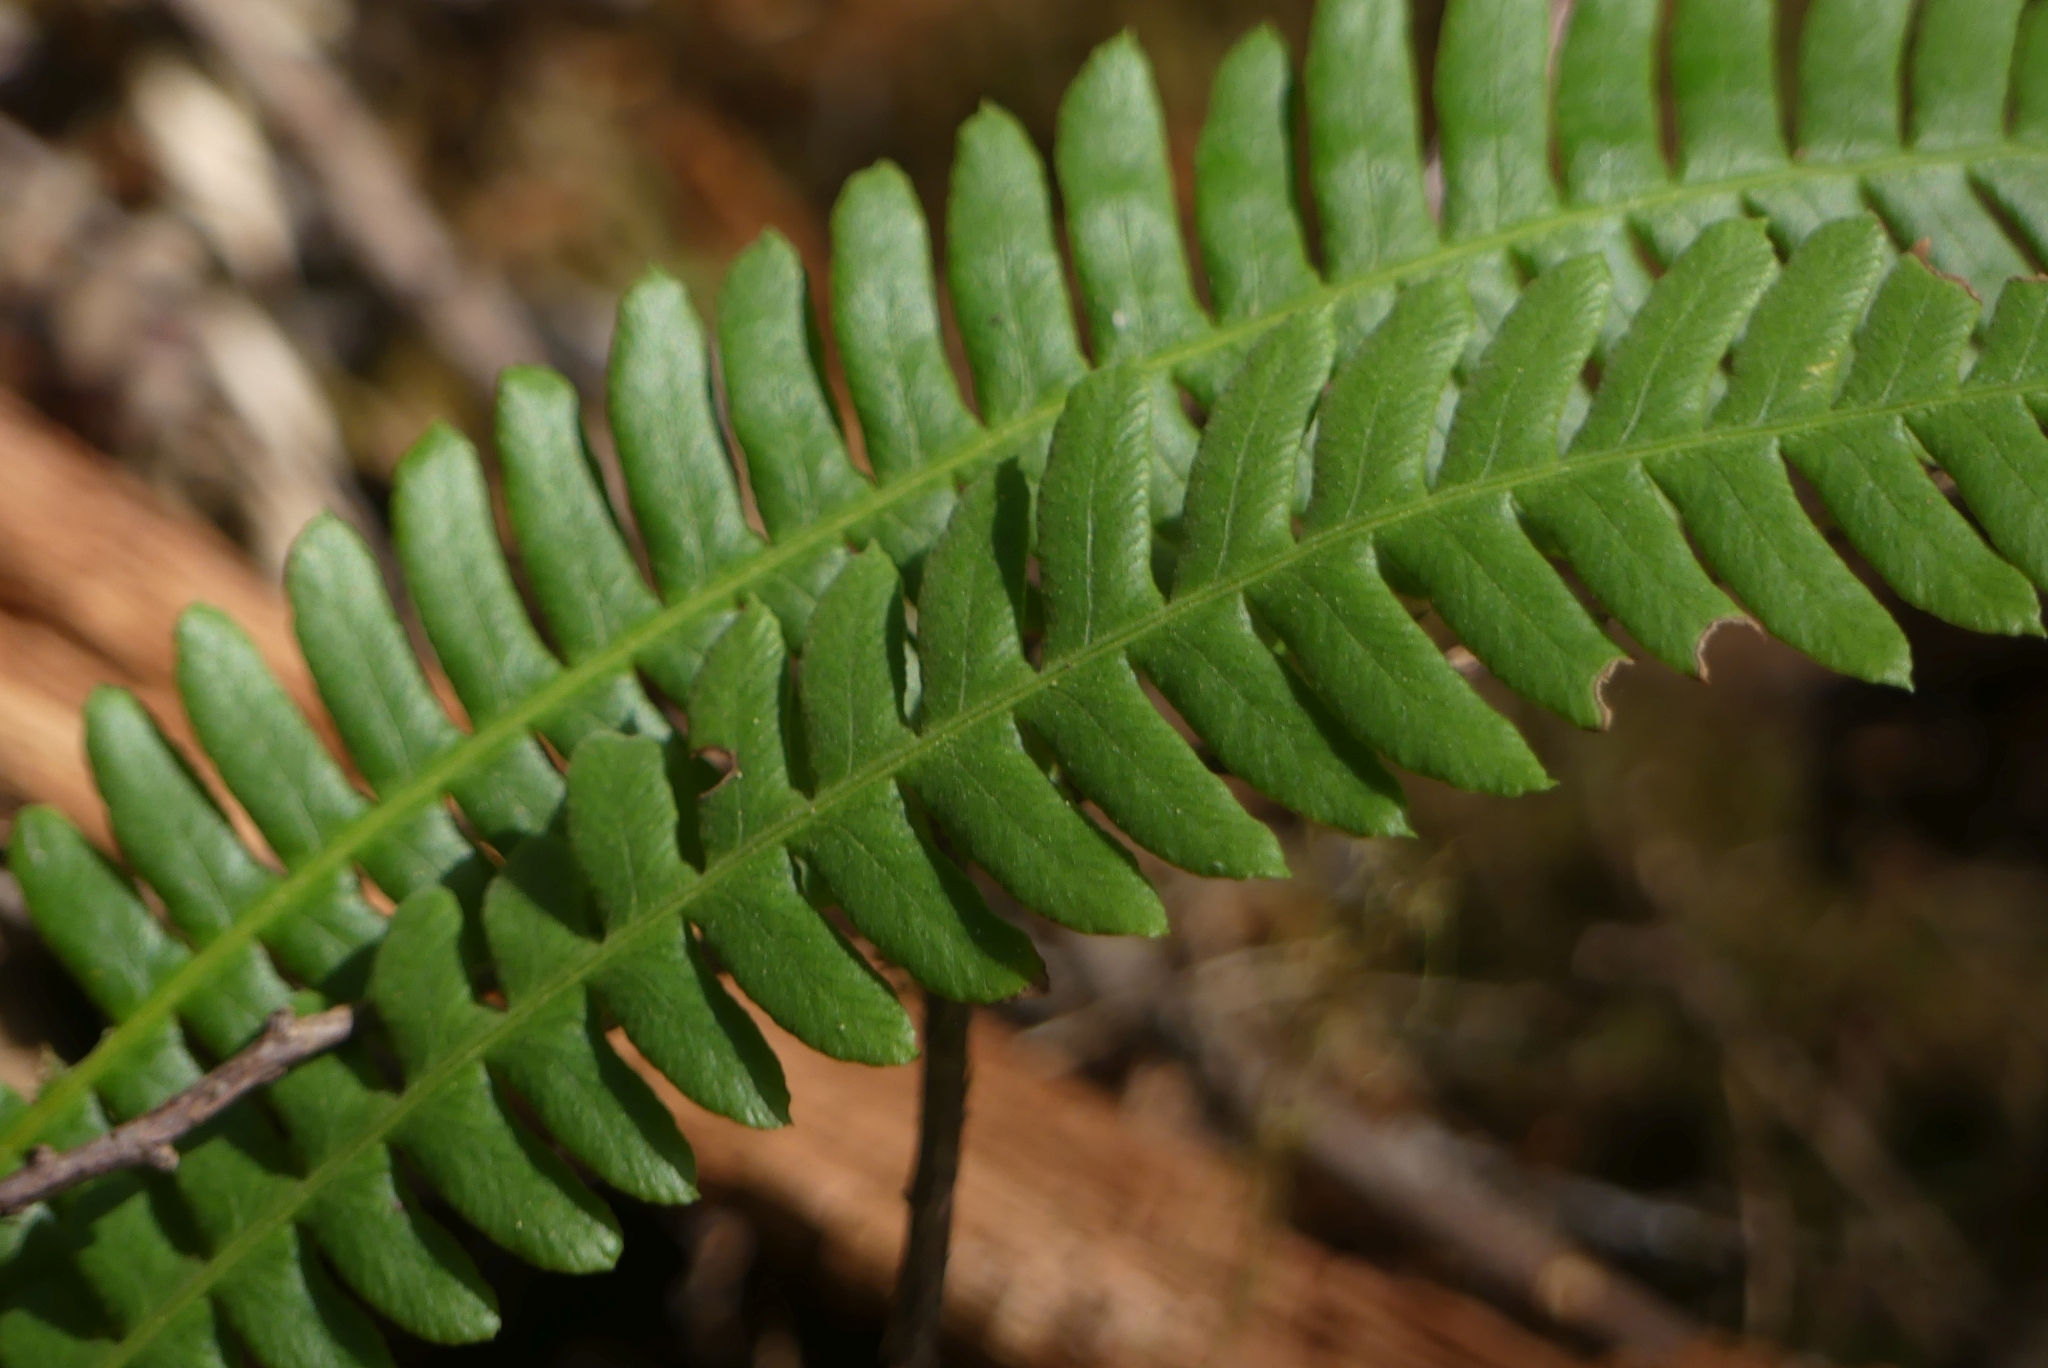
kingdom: Plantae
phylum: Tracheophyta
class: Polypodiopsida
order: Polypodiales
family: Blechnaceae
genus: Struthiopteris
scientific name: Struthiopteris spicant
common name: Deer fern
